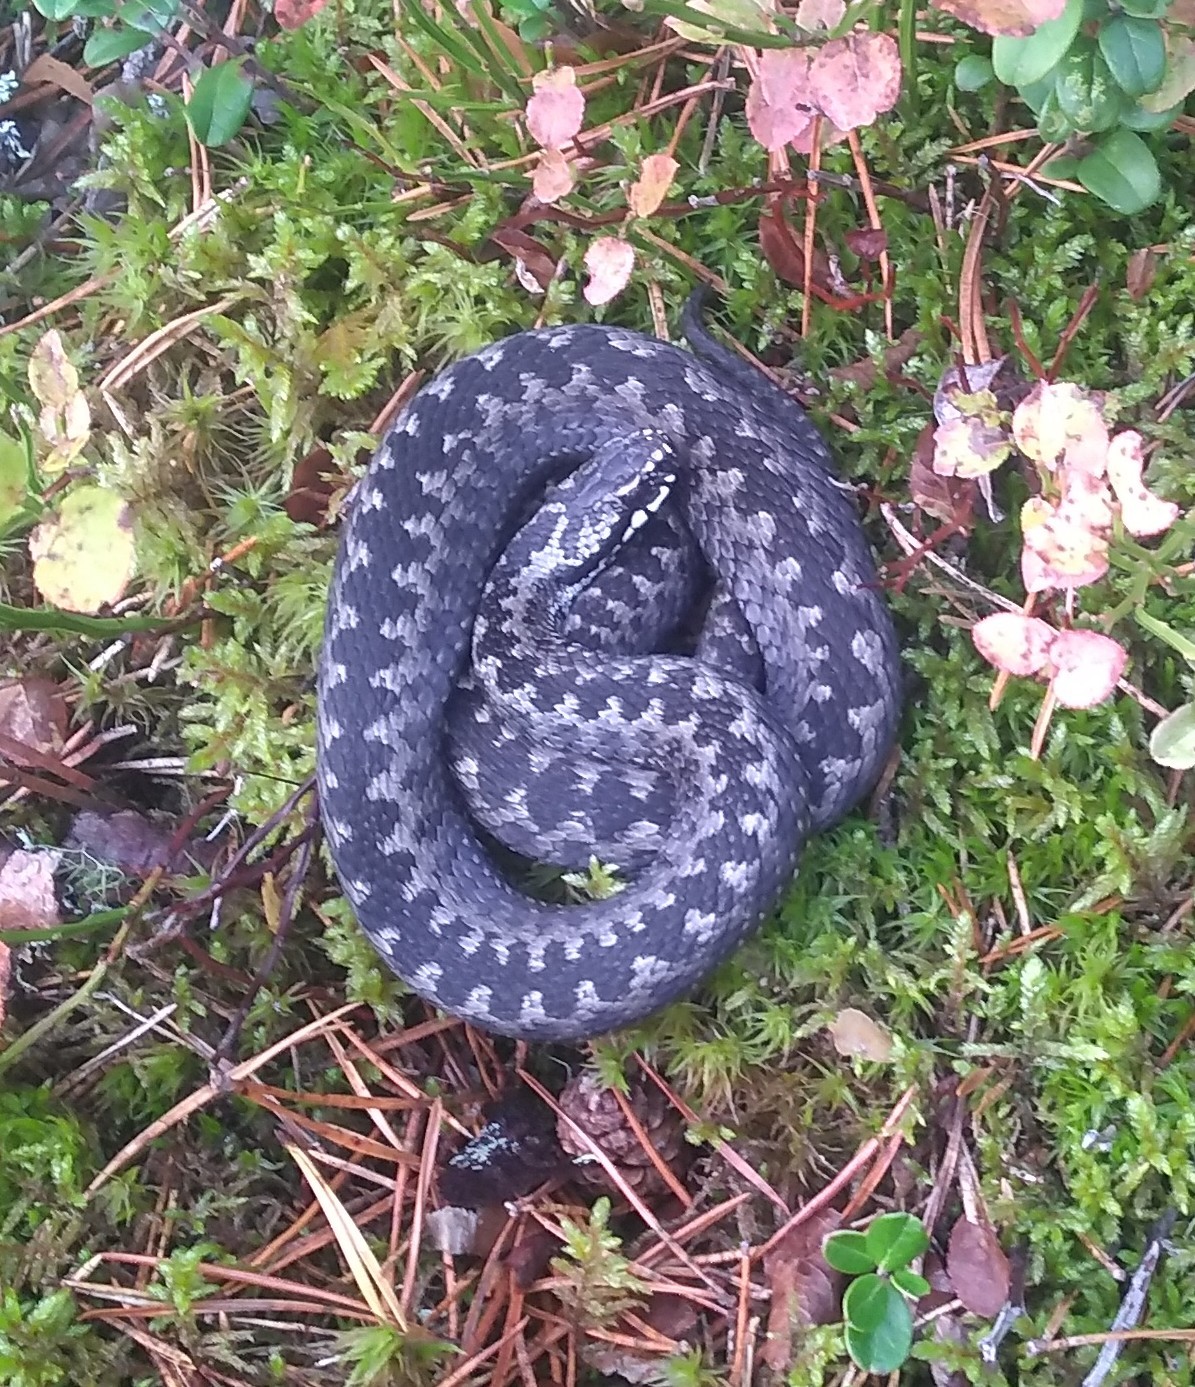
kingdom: Animalia
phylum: Chordata
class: Squamata
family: Viperidae
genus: Vipera
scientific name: Vipera berus
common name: Adder
